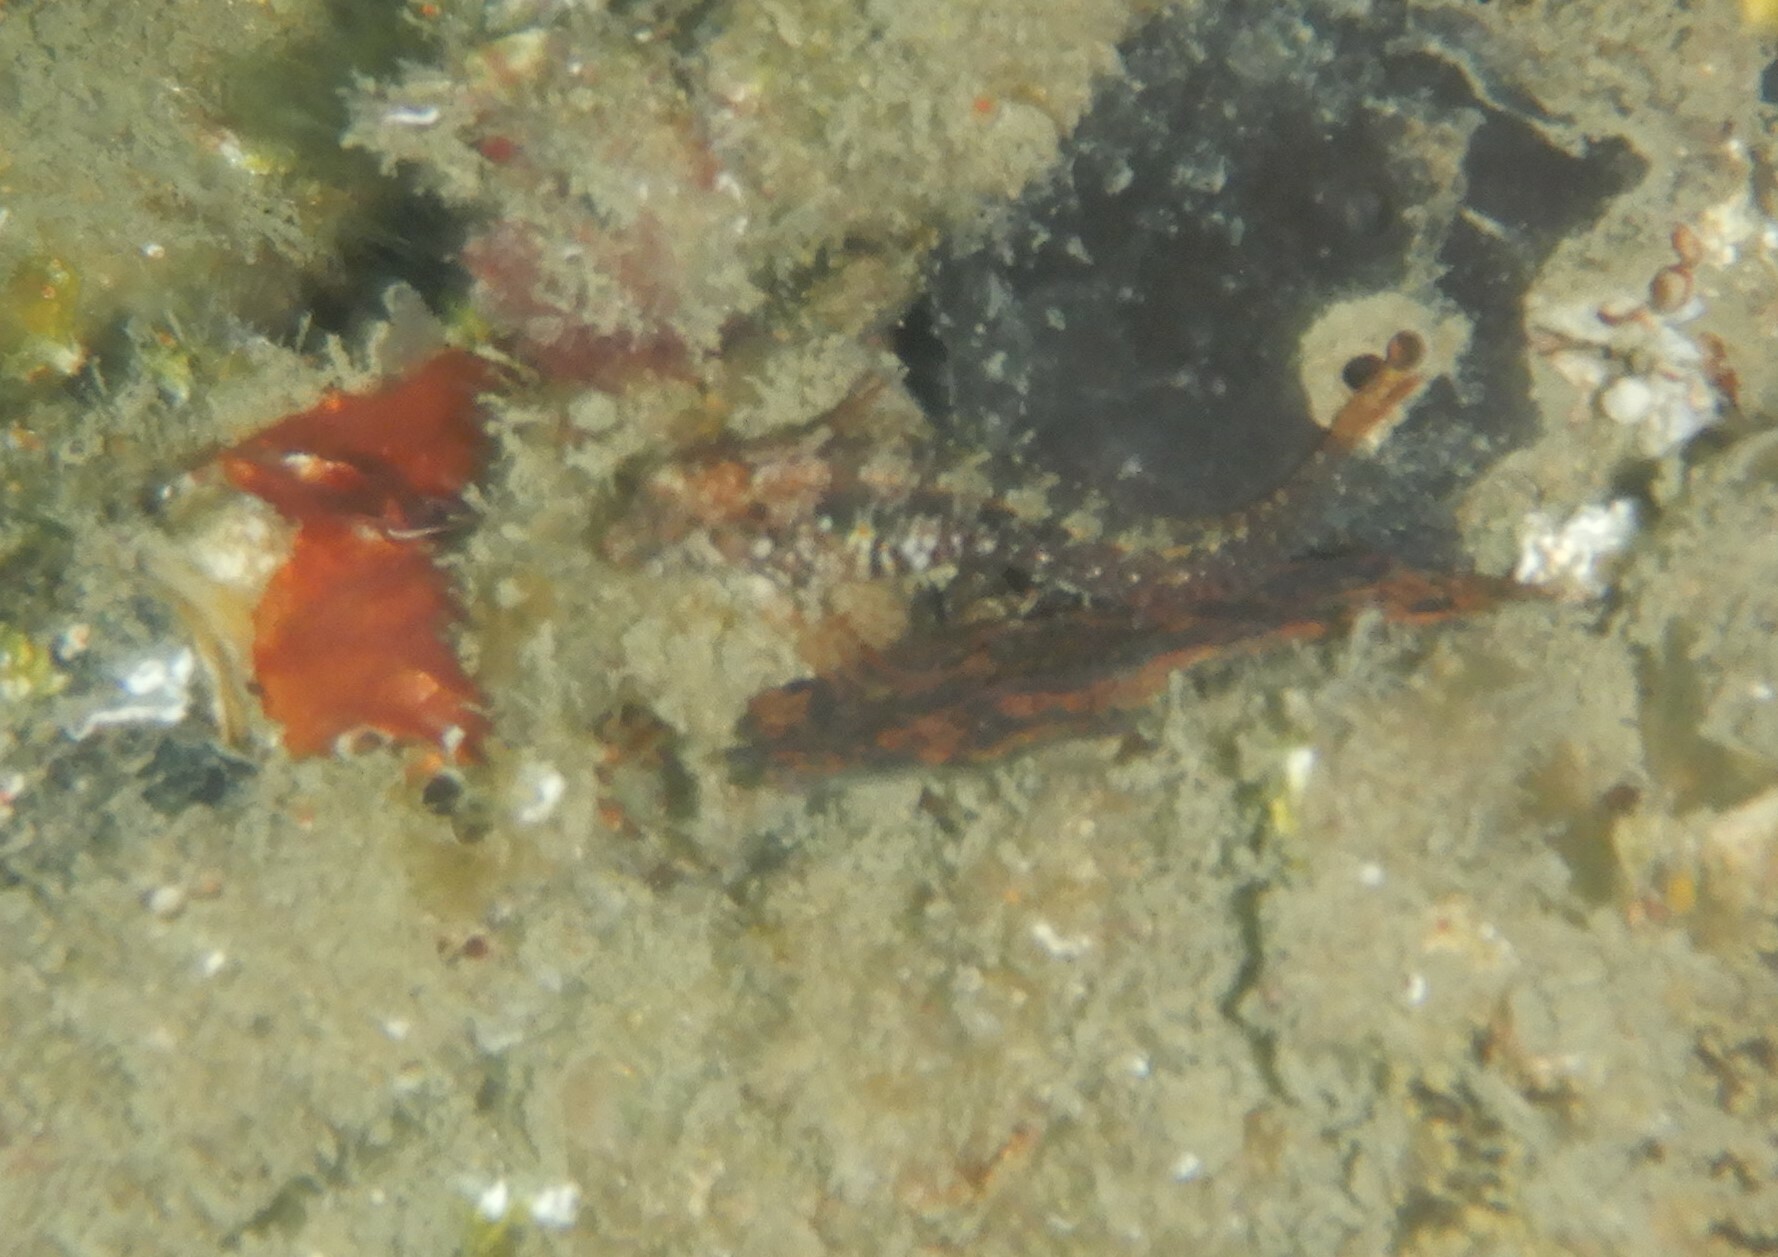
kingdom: Animalia
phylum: Chordata
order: Perciformes
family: Blenniidae
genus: Parablennius
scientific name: Parablennius incognitus
